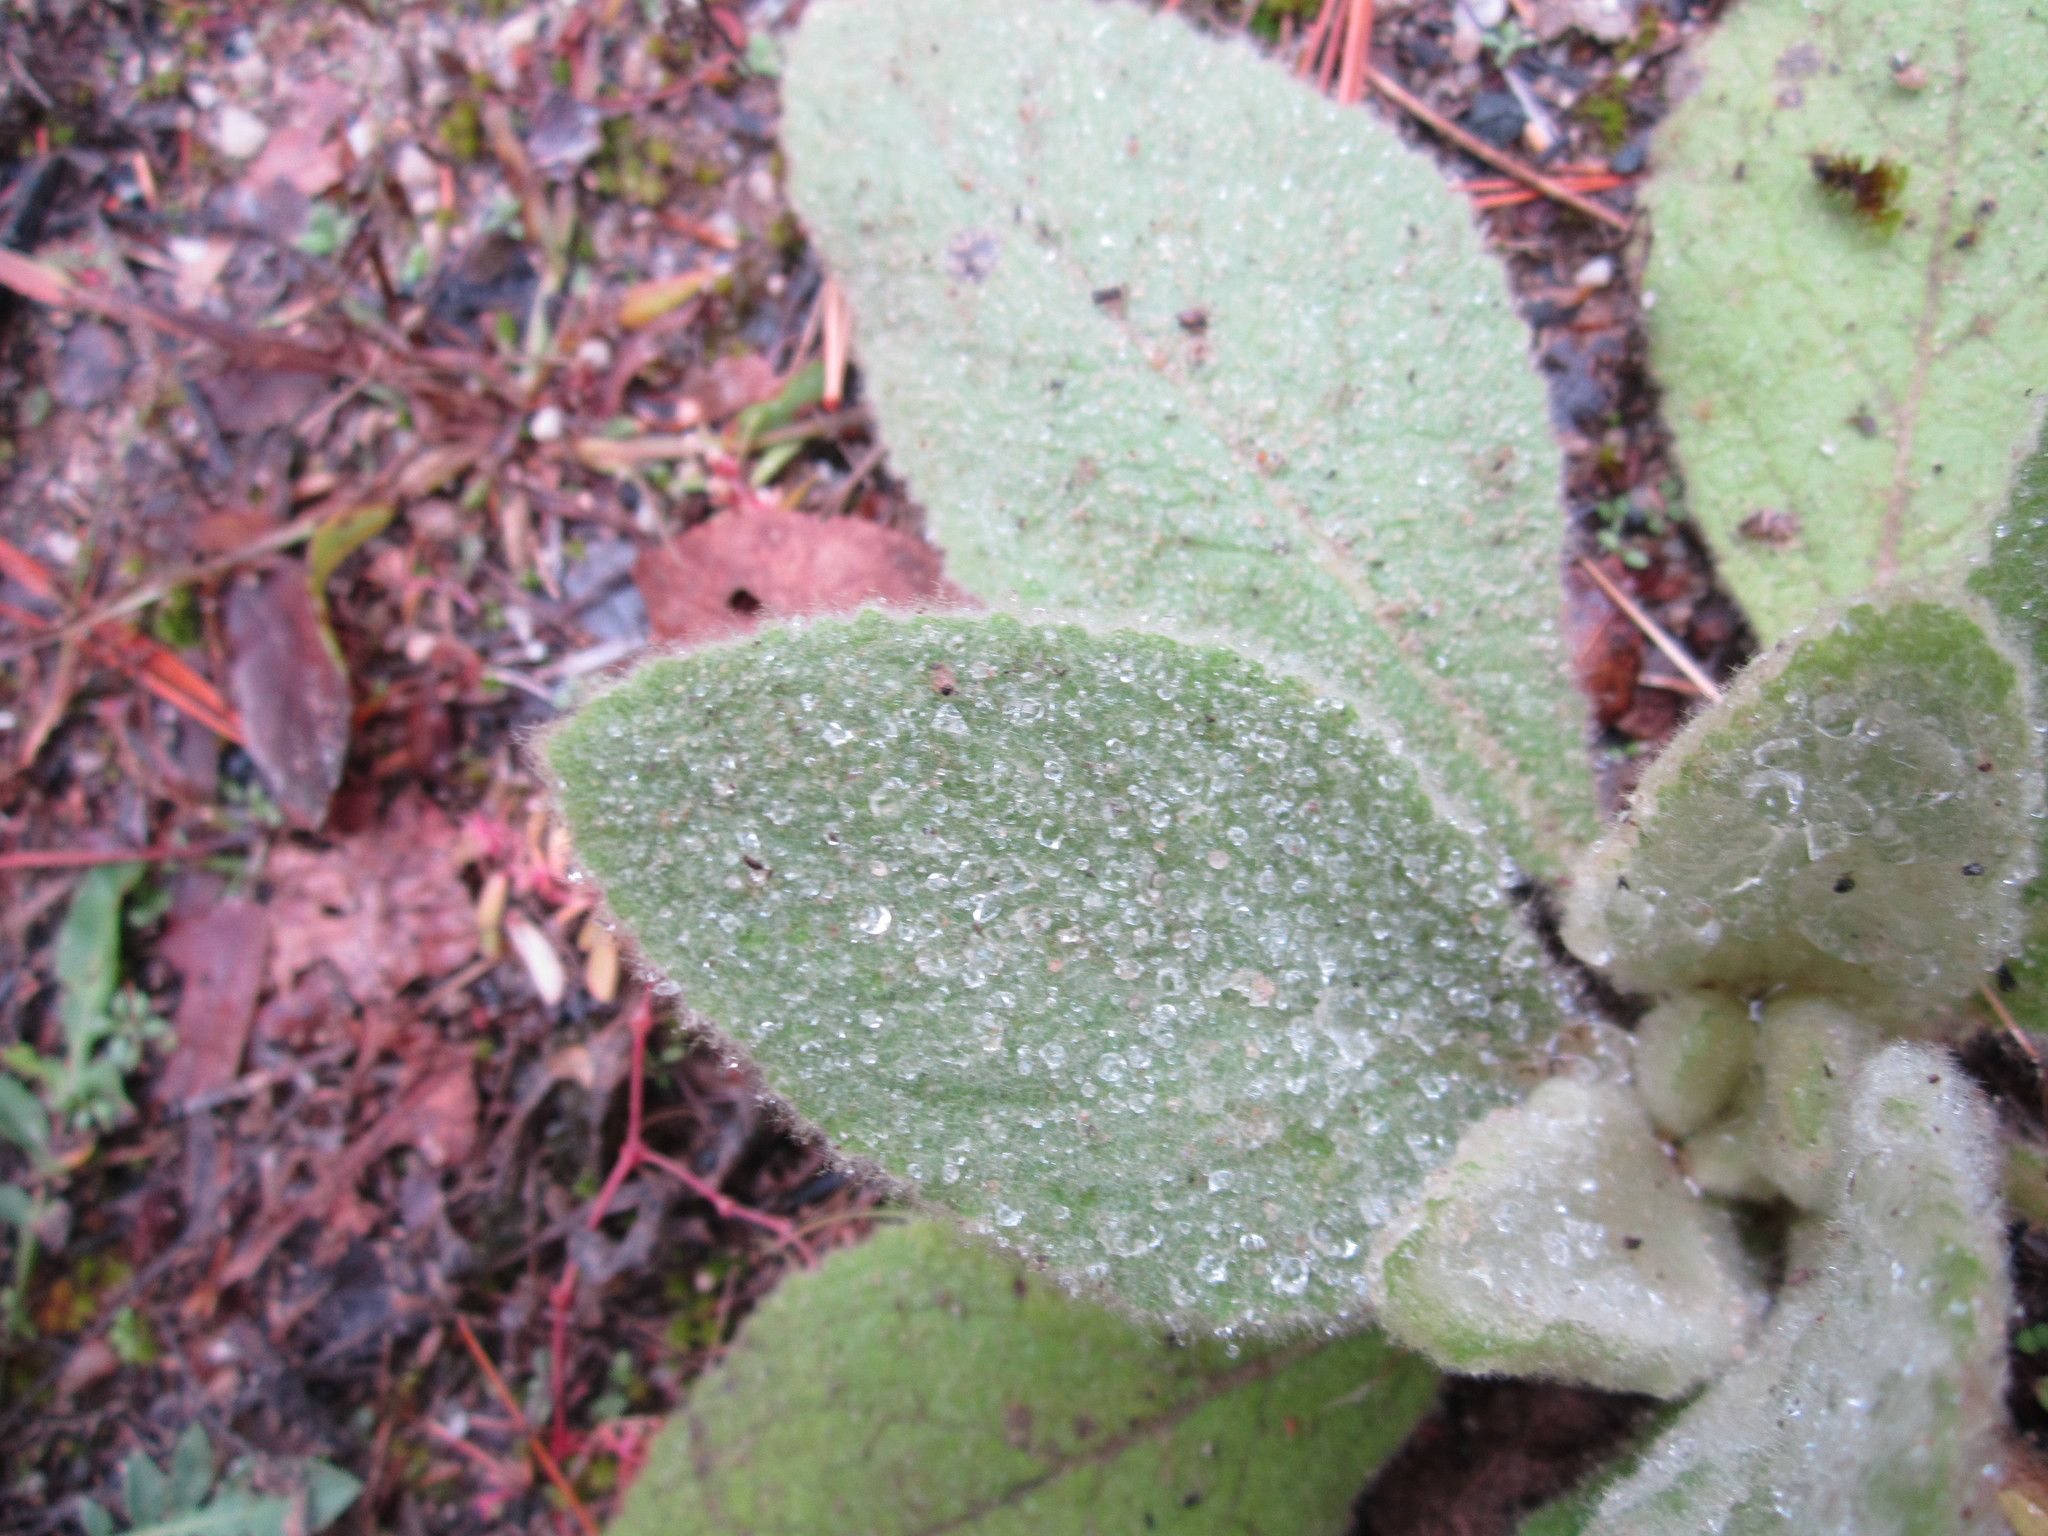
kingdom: Plantae
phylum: Tracheophyta
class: Magnoliopsida
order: Lamiales
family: Scrophulariaceae
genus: Verbascum
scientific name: Verbascum thapsus
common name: Common mullein
